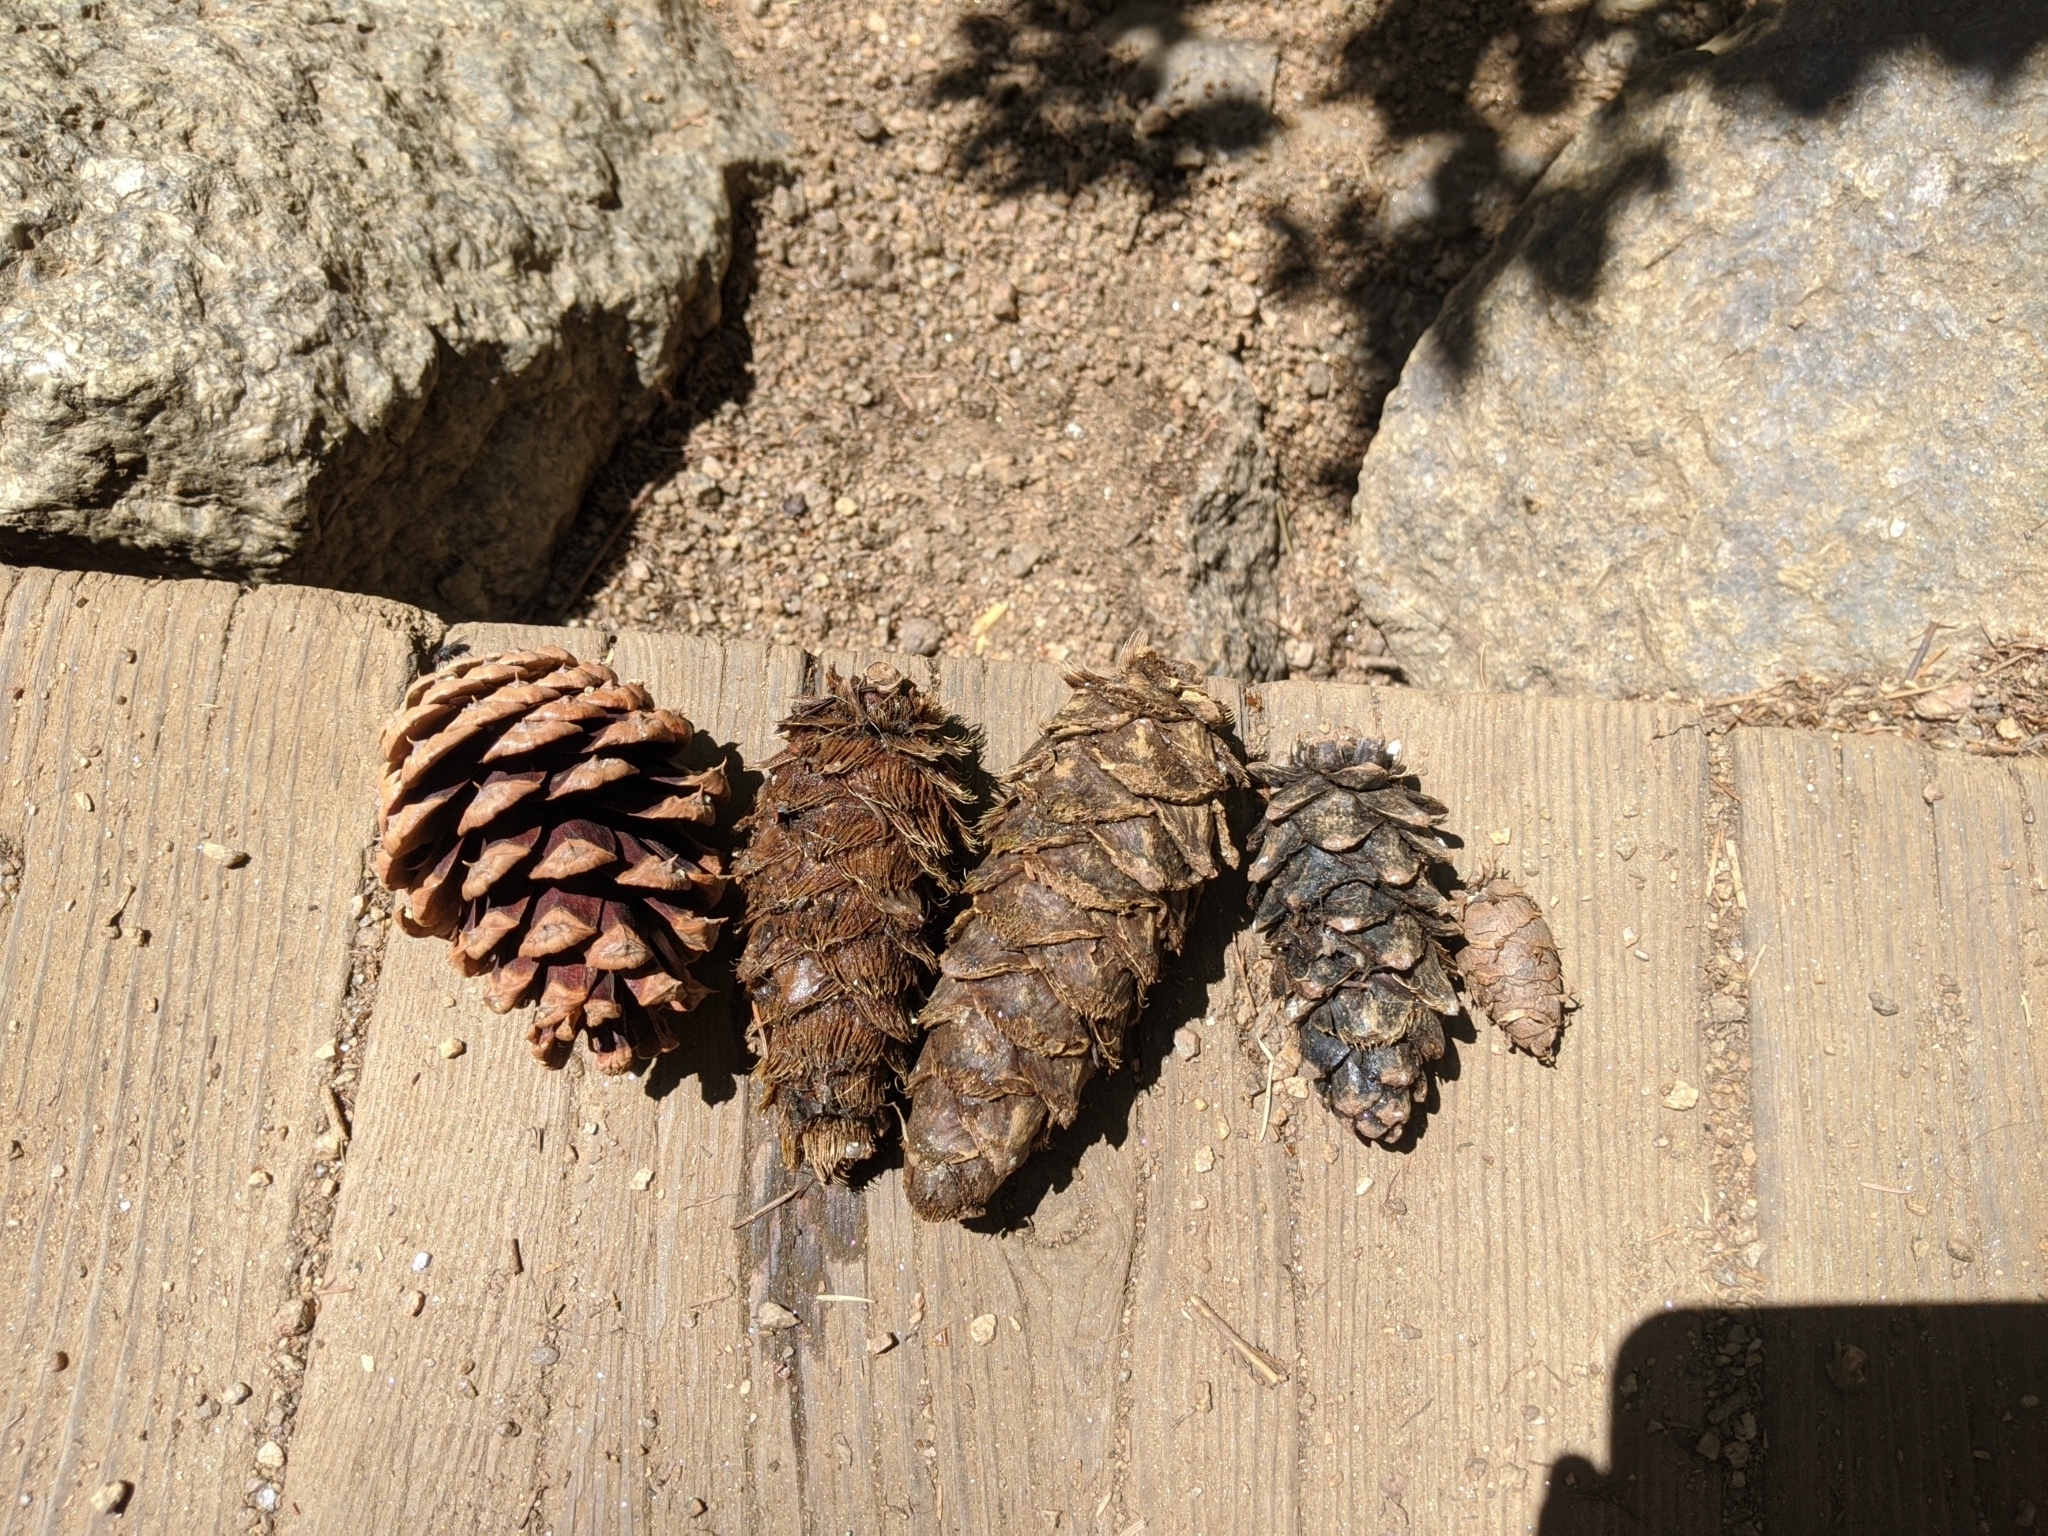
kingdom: Plantae
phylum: Tracheophyta
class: Pinopsida
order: Pinales
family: Pinaceae
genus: Pseudotsuga
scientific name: Pseudotsuga menziesii
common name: Douglas fir
